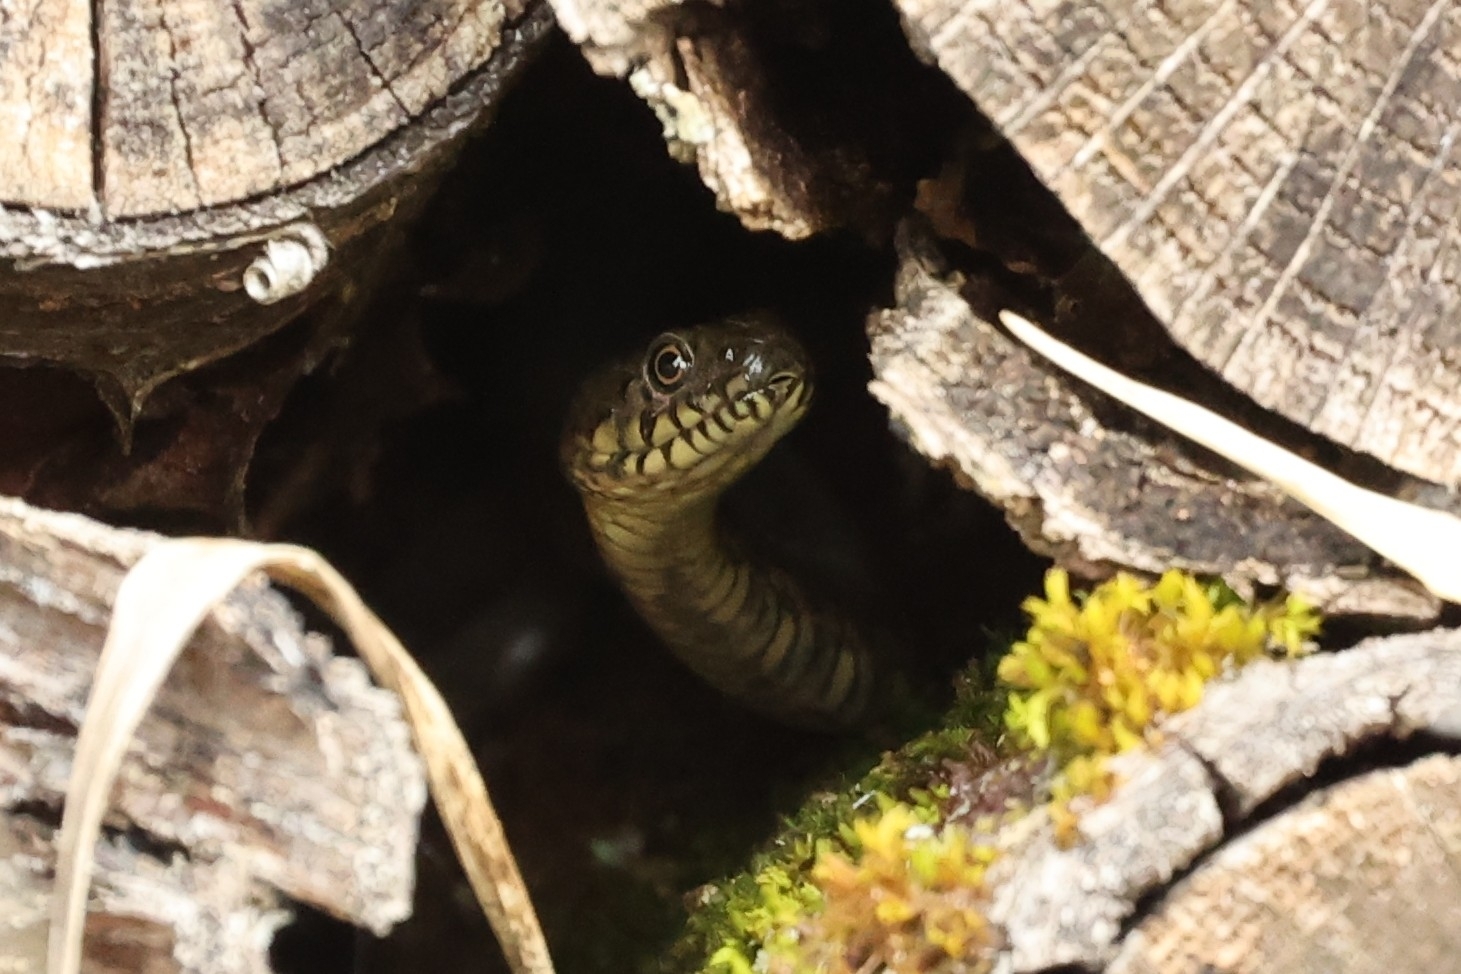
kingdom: Animalia
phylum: Chordata
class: Squamata
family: Colubridae
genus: Natrix
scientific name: Natrix maura
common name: Viperine water snake
